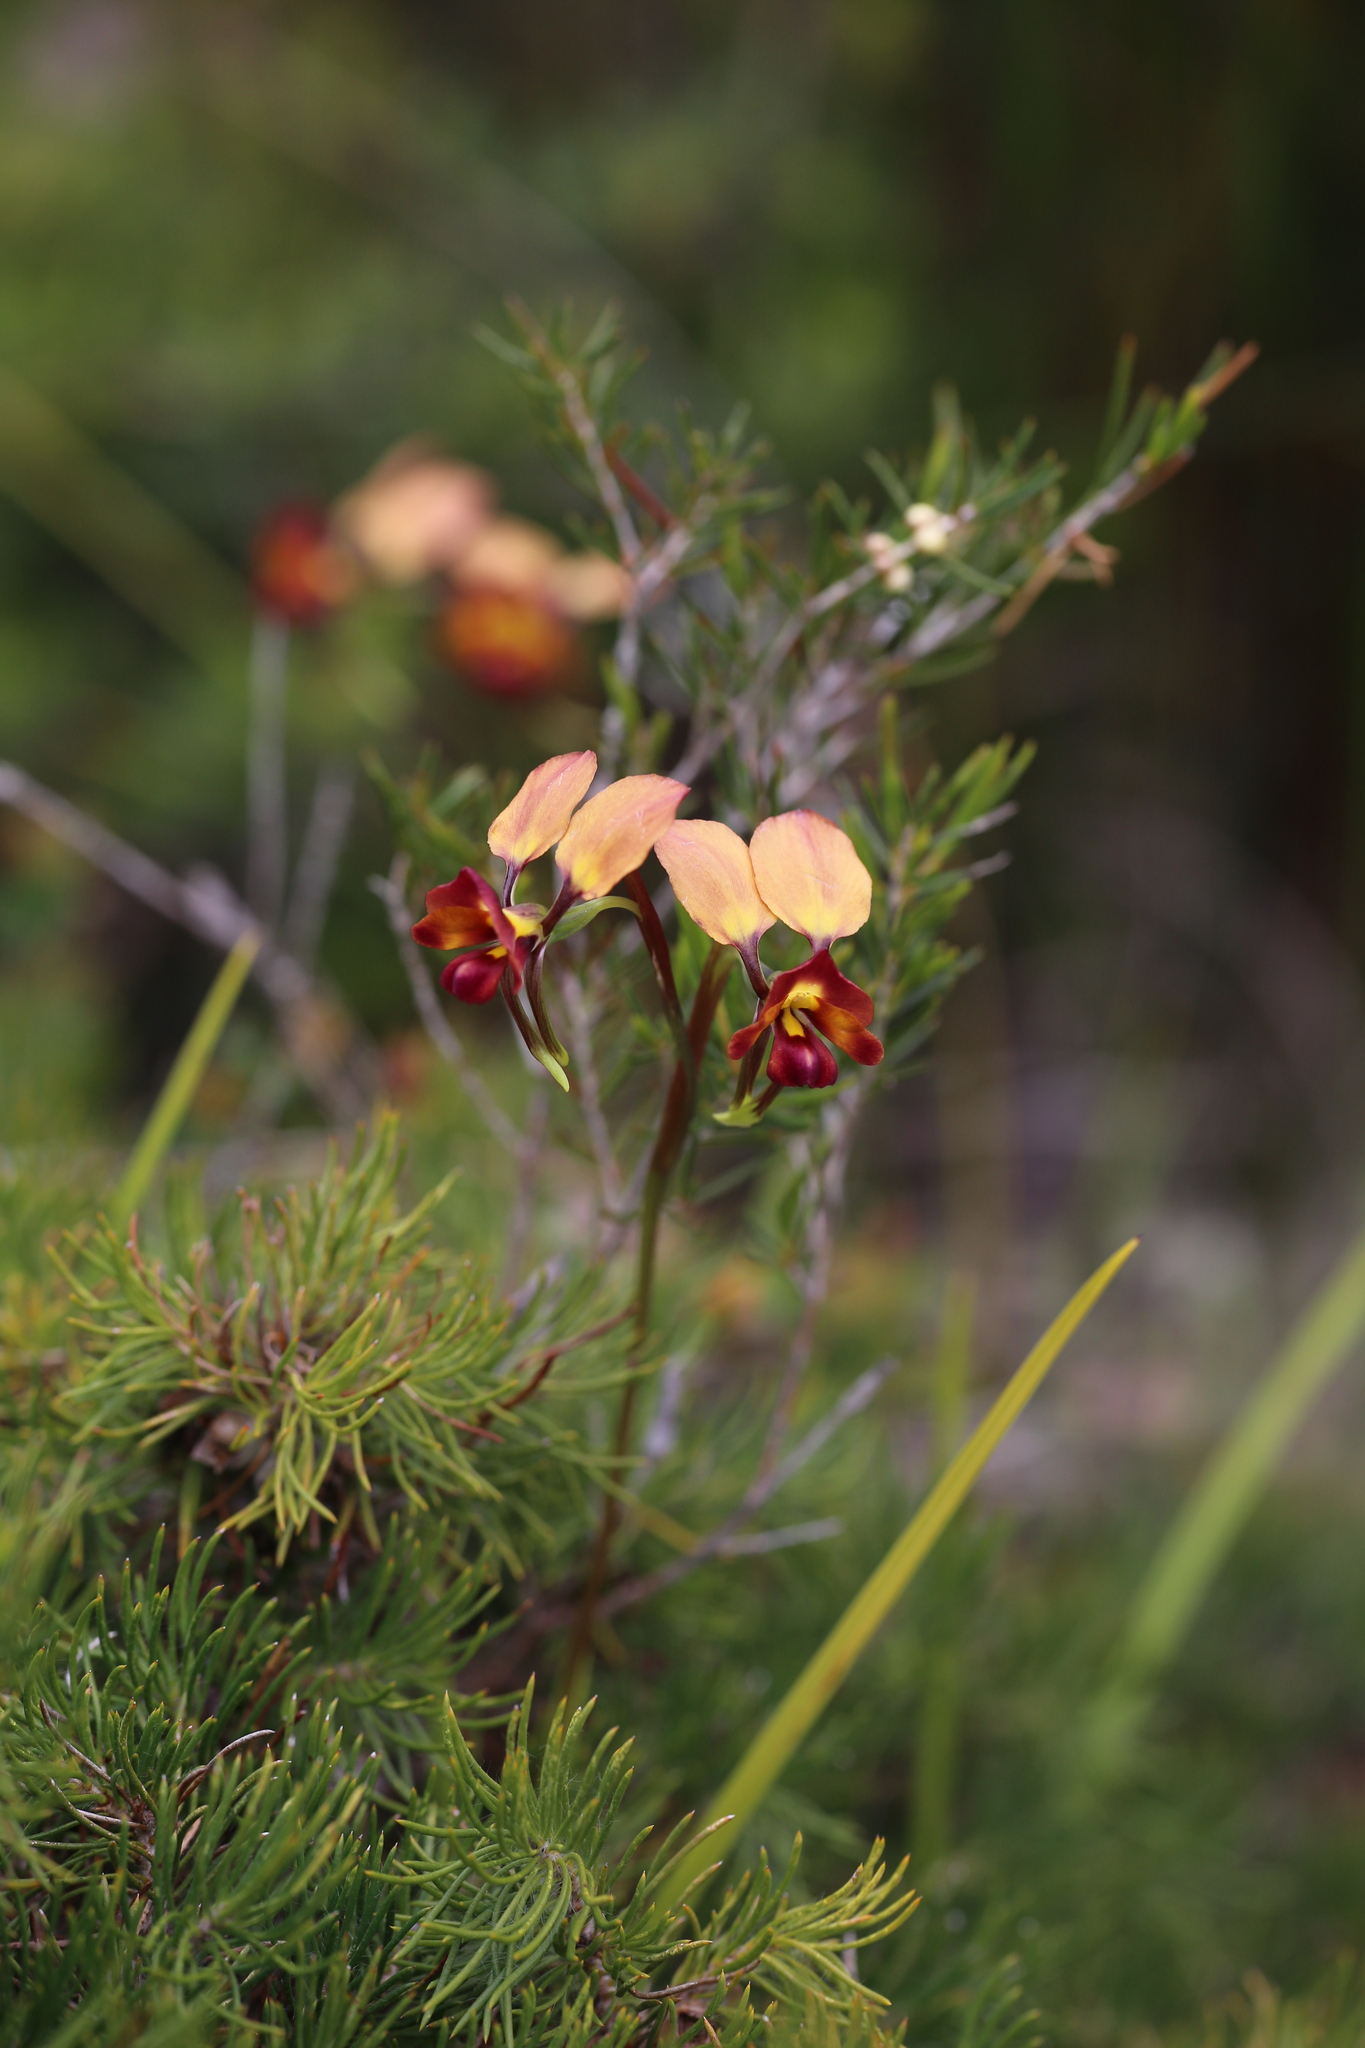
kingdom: Plantae
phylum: Tracheophyta
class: Liliopsida
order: Asparagales
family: Orchidaceae
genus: Diuris
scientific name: Diuris jonesii
